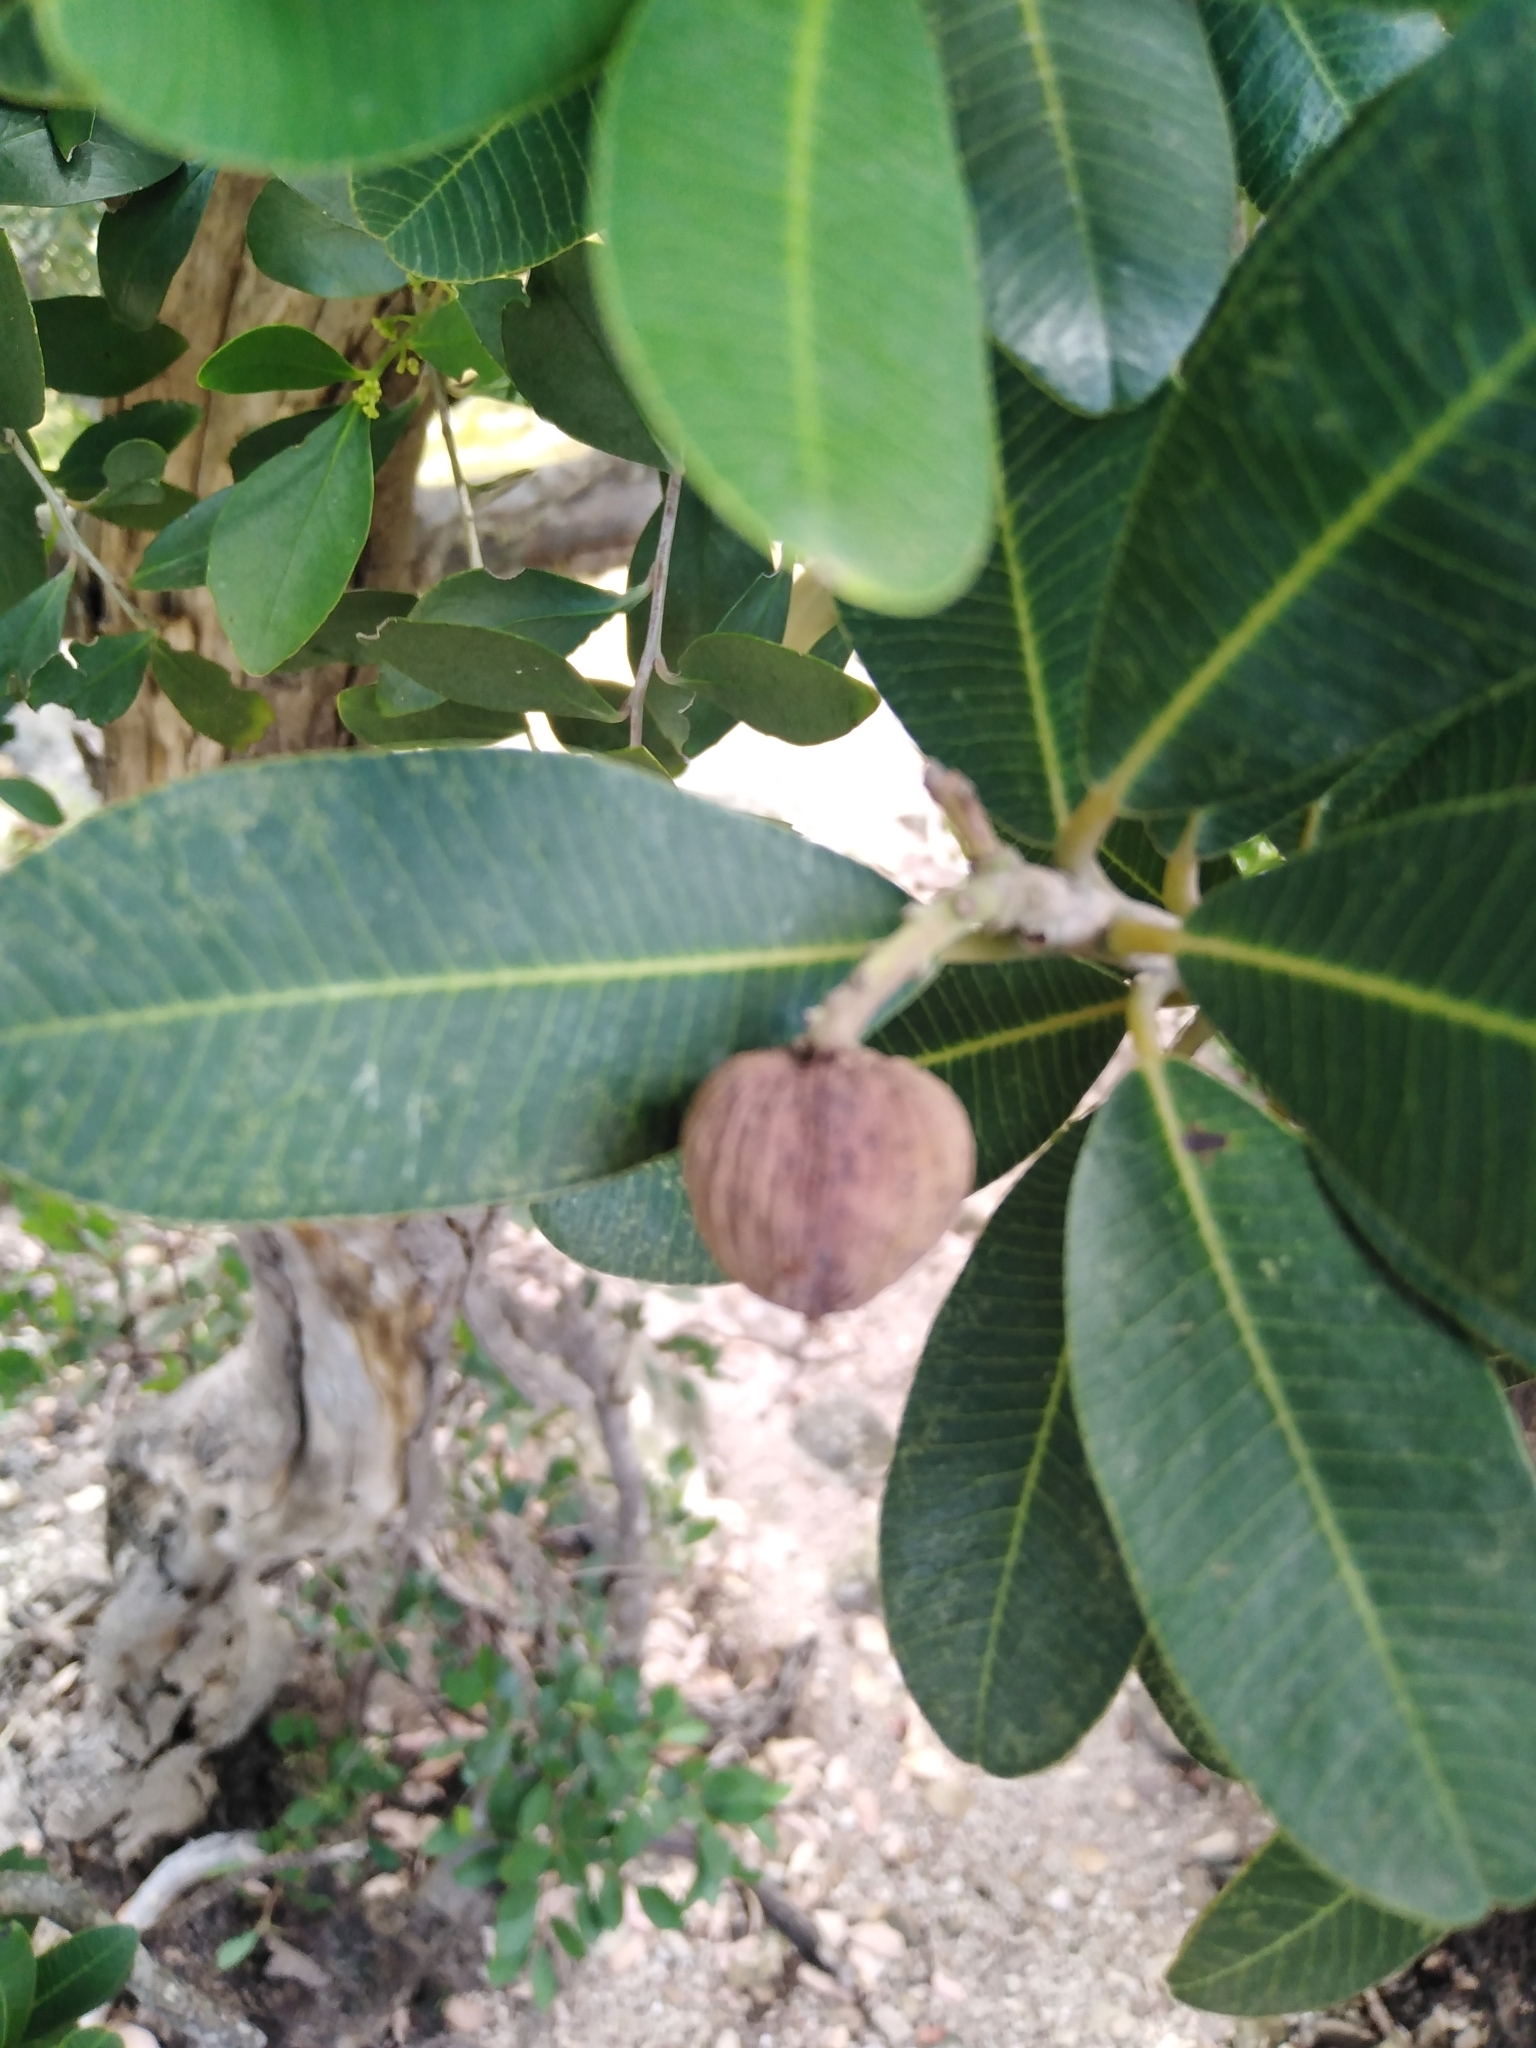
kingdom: Plantae
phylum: Tracheophyta
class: Magnoliopsida
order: Sapindales
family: Anacardiaceae
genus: Heeria
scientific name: Heeria argentea
